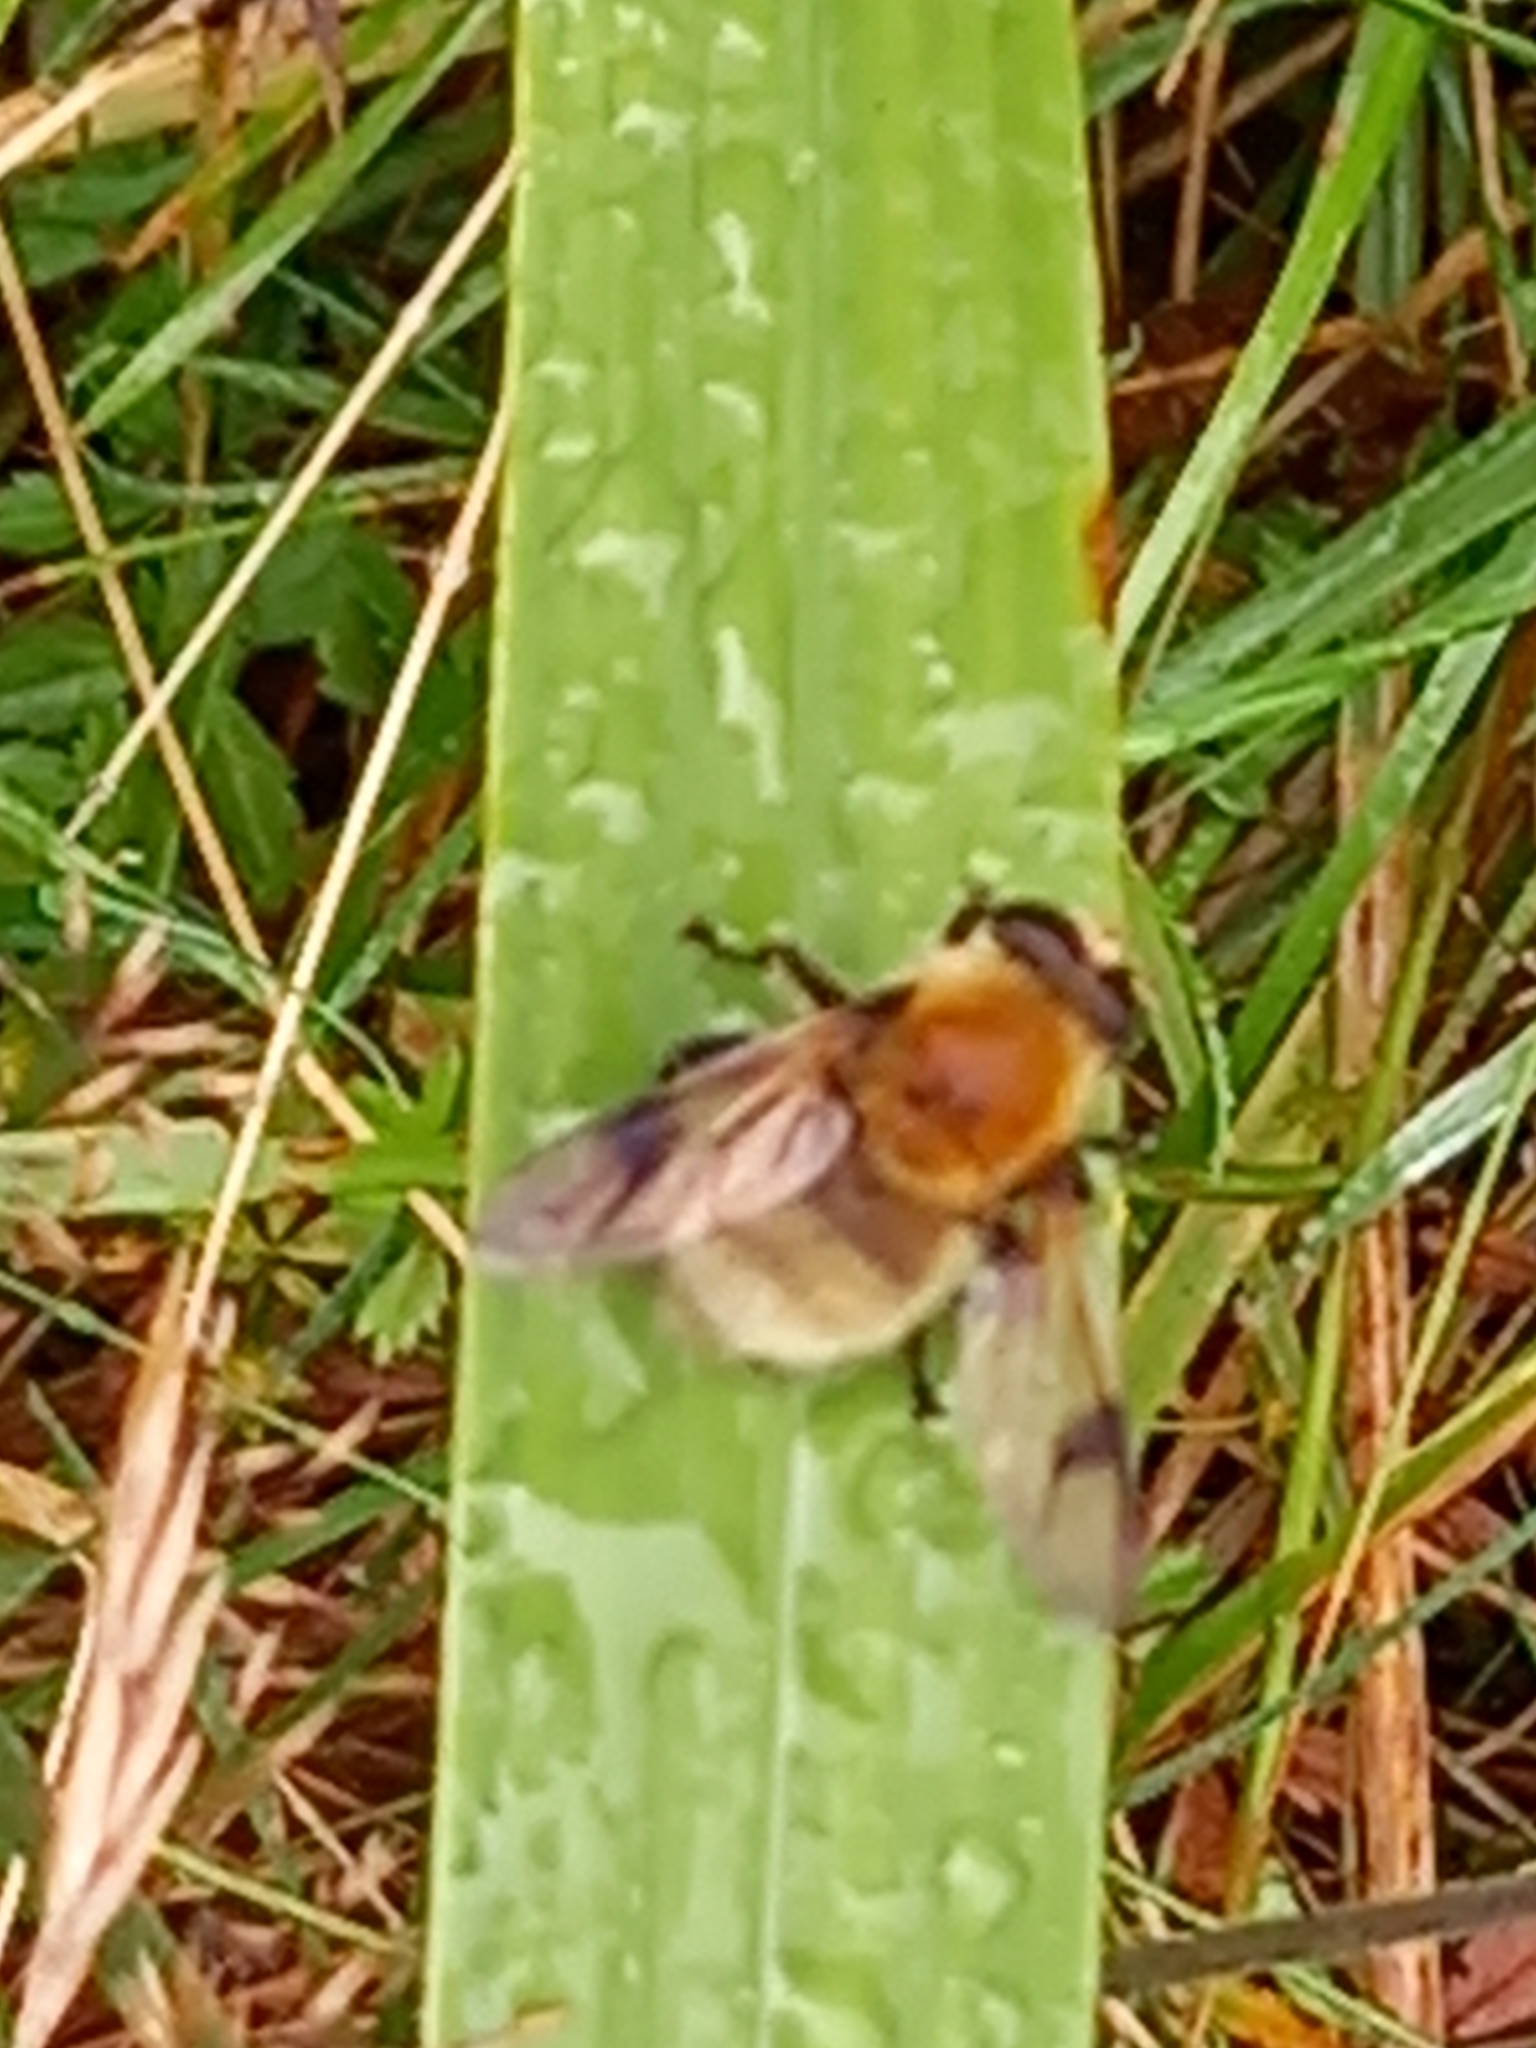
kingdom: Animalia
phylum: Arthropoda
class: Insecta
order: Diptera
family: Syrphidae
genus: Sericomyia
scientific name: Sericomyia superbiens
